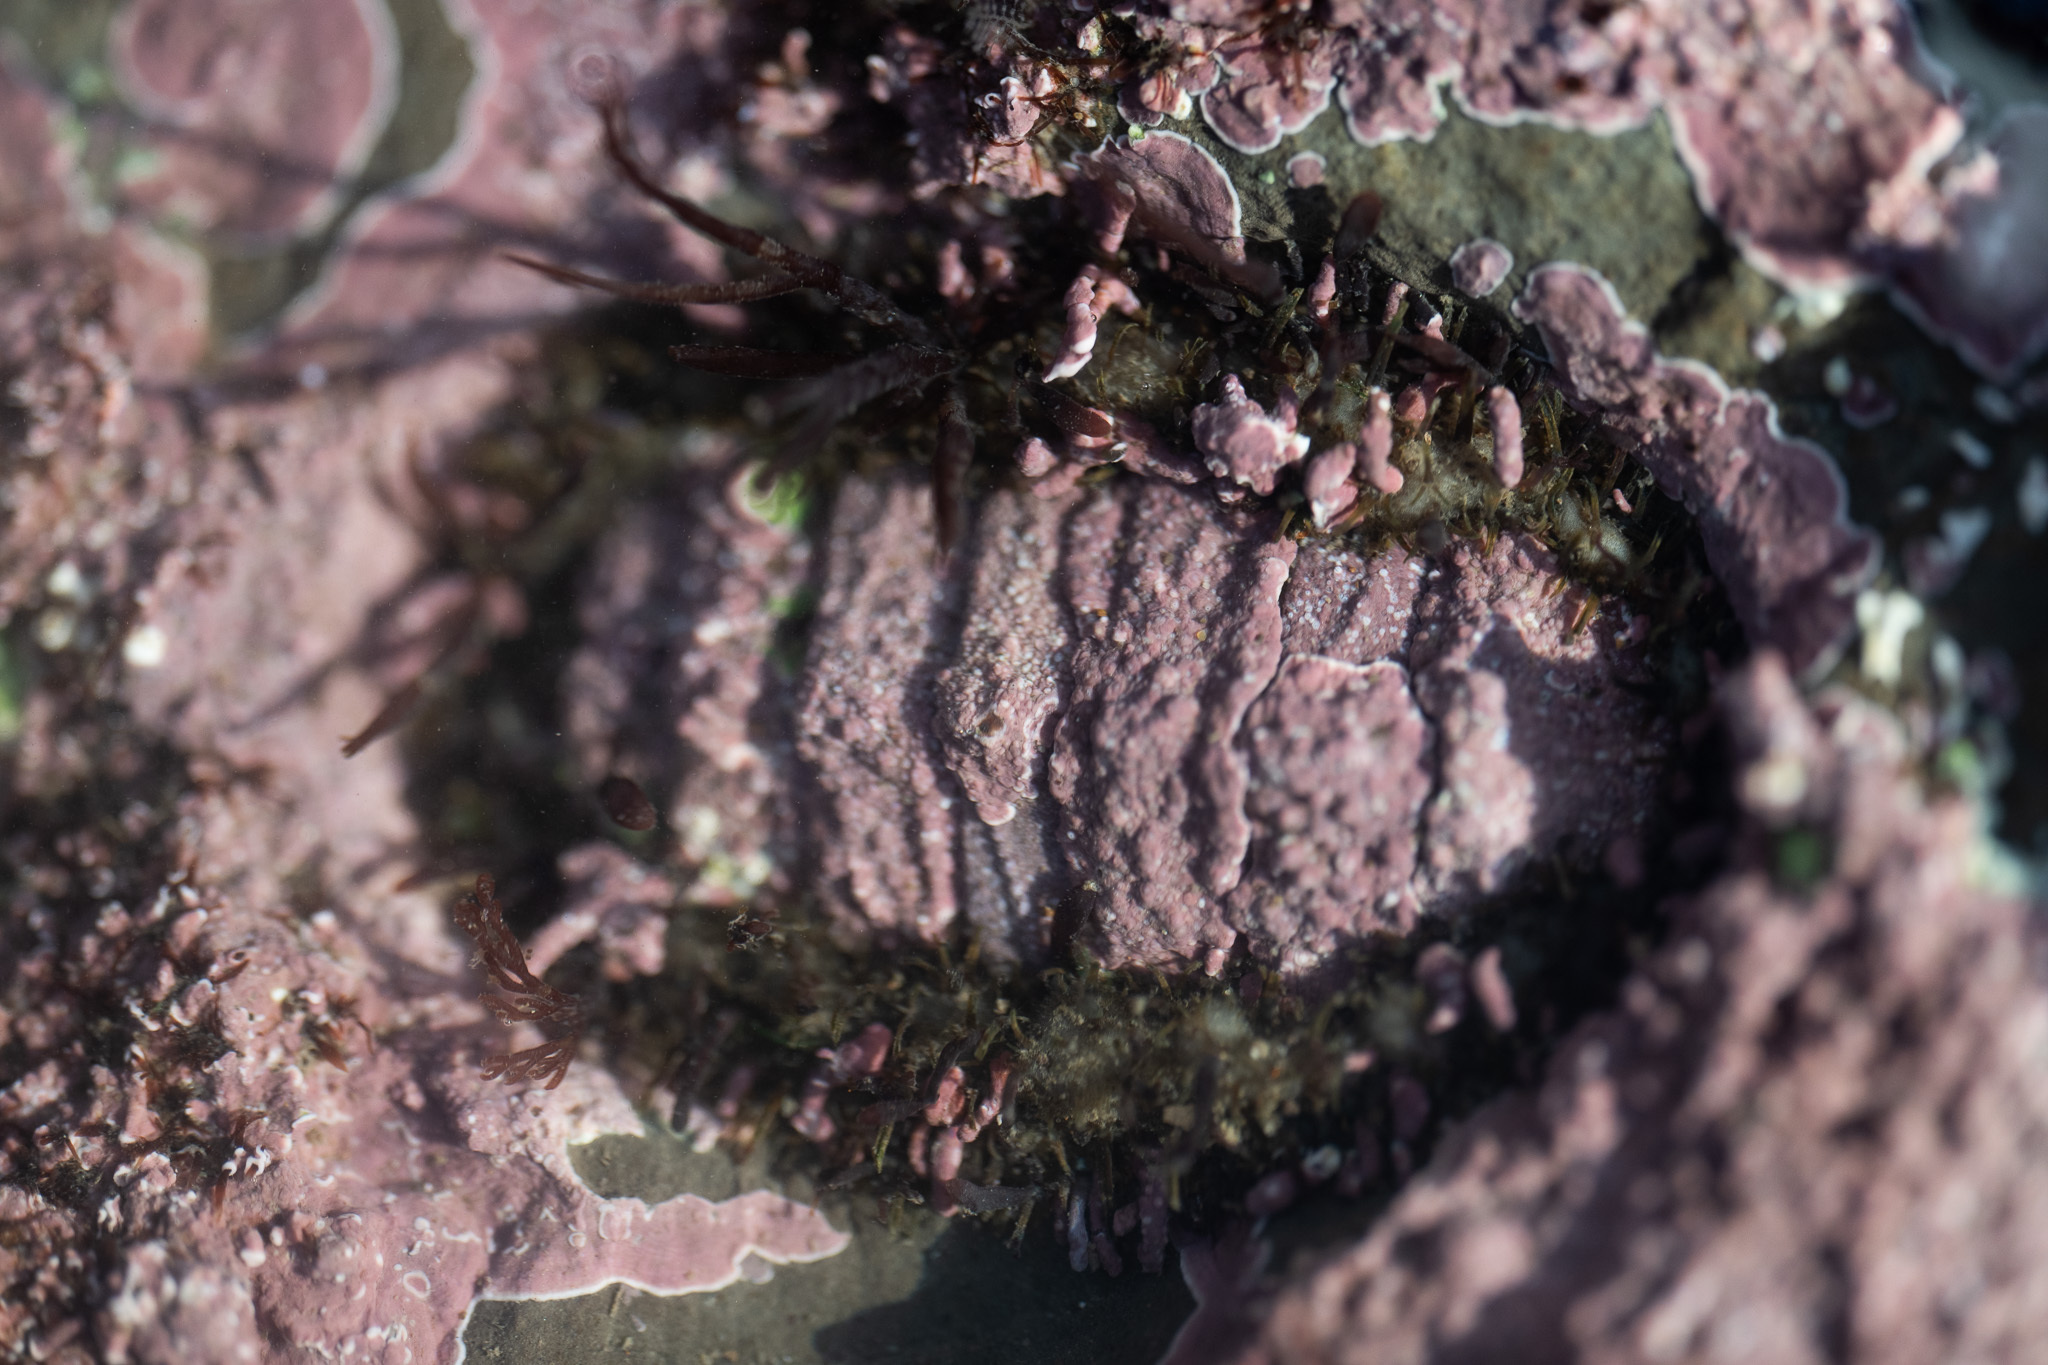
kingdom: Animalia
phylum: Mollusca
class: Polyplacophora
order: Chitonida
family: Mopaliidae
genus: Mopalia
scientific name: Mopalia muscosa
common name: Mossy chiton
